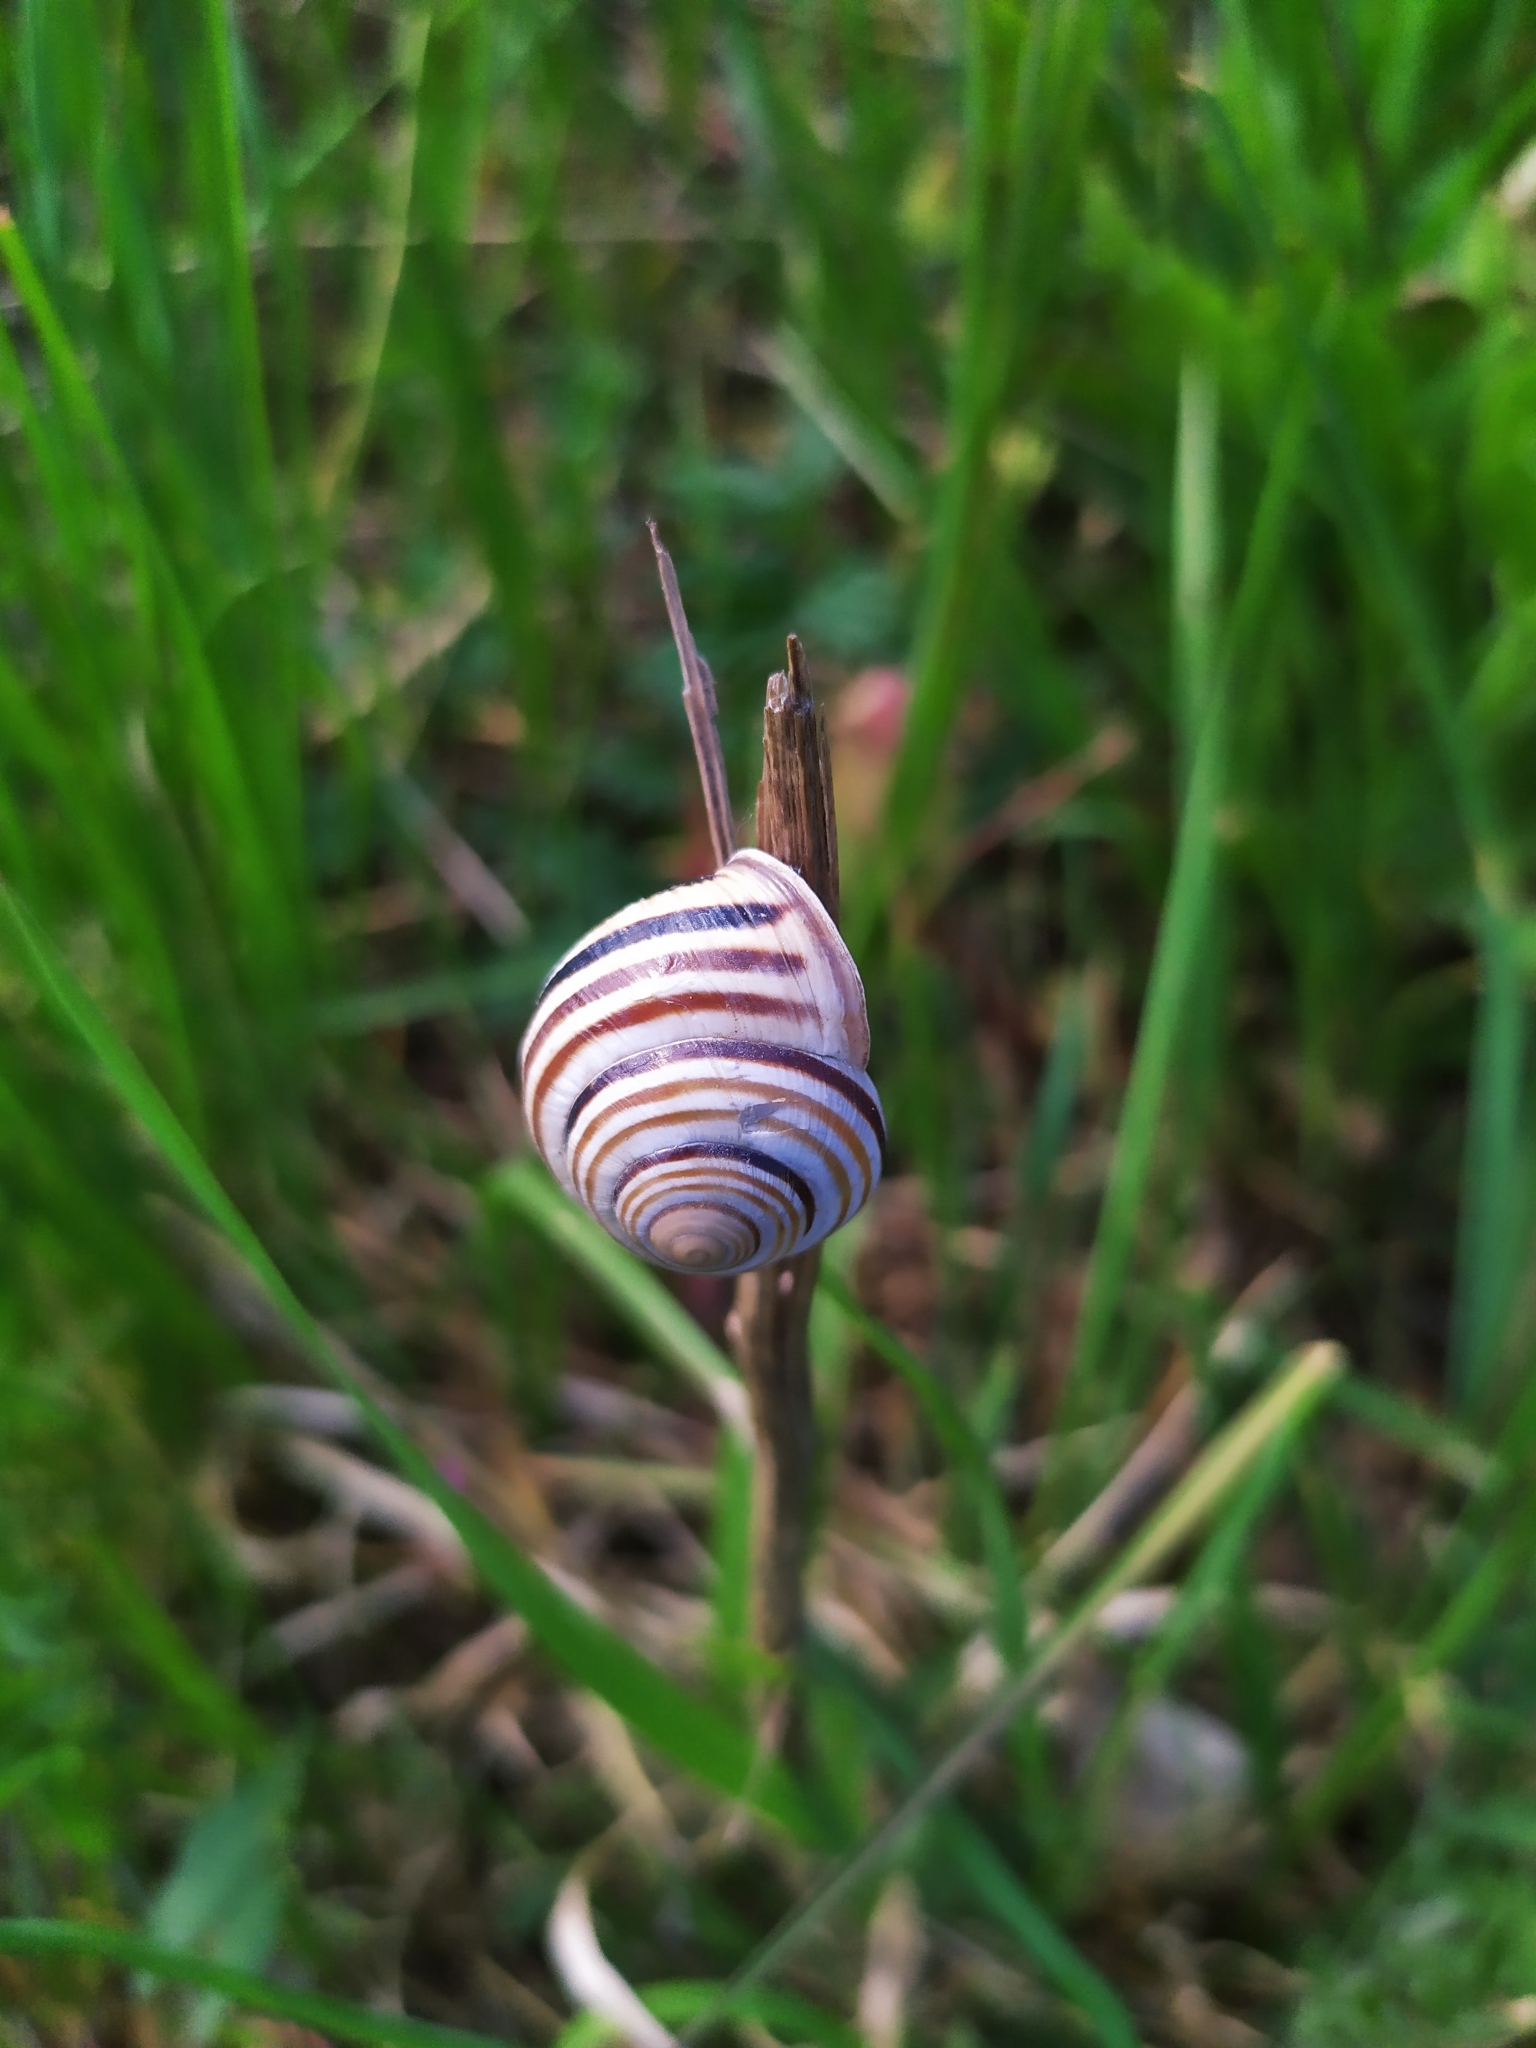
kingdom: Animalia
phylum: Mollusca
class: Gastropoda
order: Stylommatophora
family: Helicidae
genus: Caucasotachea
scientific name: Caucasotachea vindobonensis
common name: European helicid land snail
